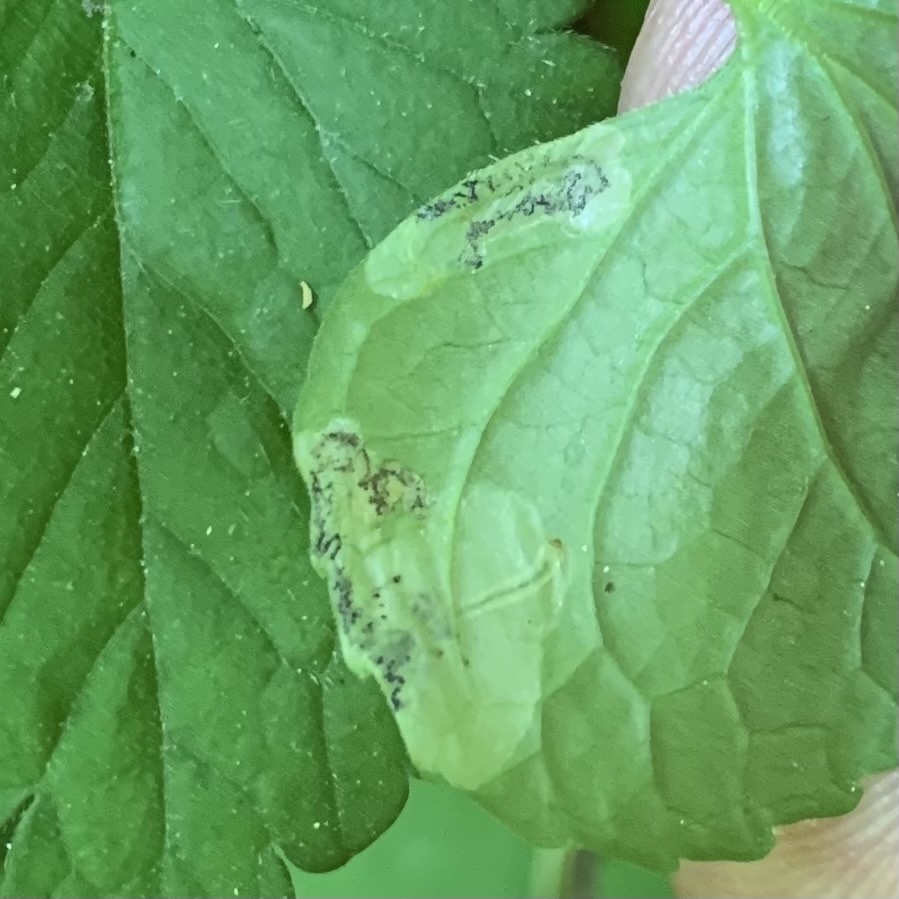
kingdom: Animalia
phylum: Arthropoda
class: Insecta
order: Hymenoptera
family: Tenthredinidae
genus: Nefusa
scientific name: Nefusa ambigua
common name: Violet leafmining sawfly
